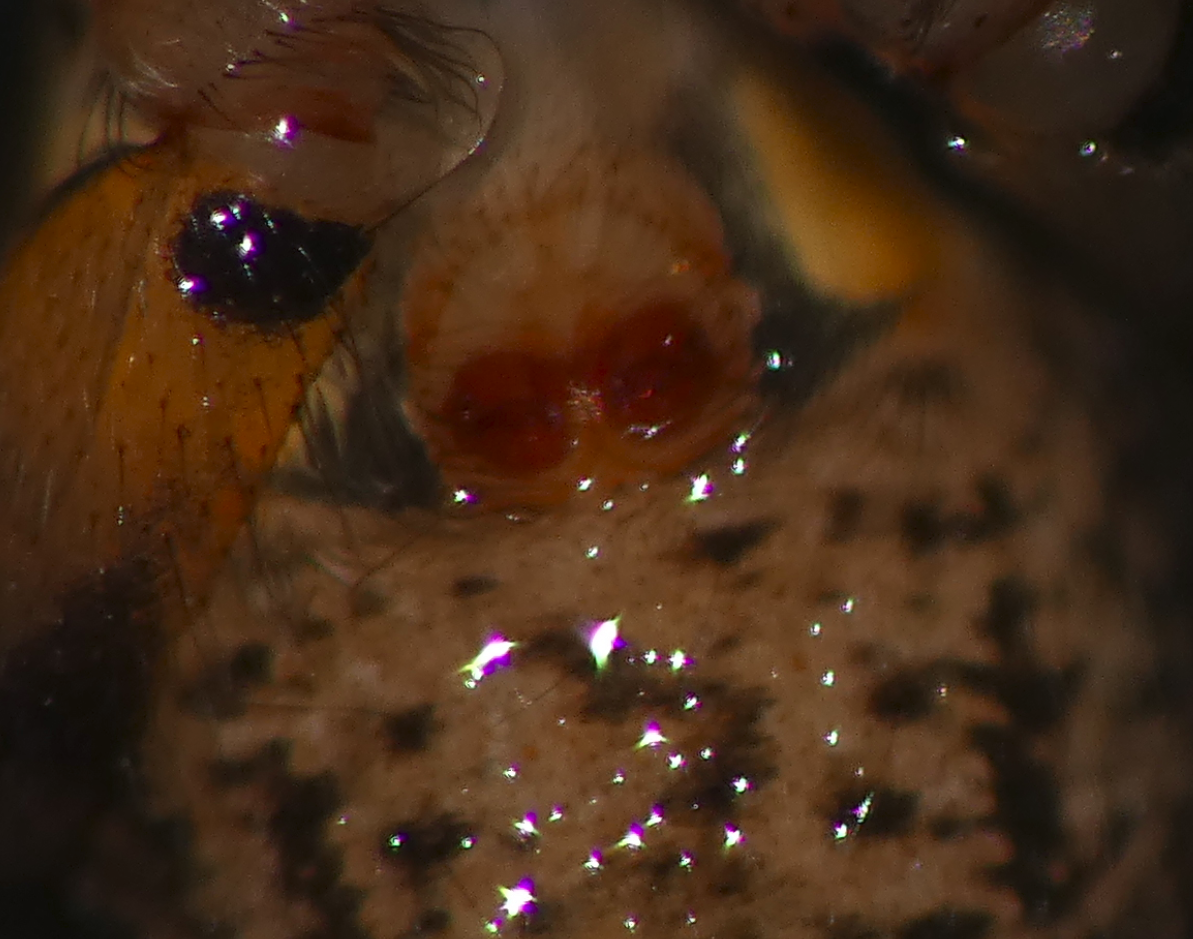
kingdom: Animalia
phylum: Arthropoda
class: Arachnida
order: Araneae
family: Salticidae
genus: Thyenula
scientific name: Thyenula munda
